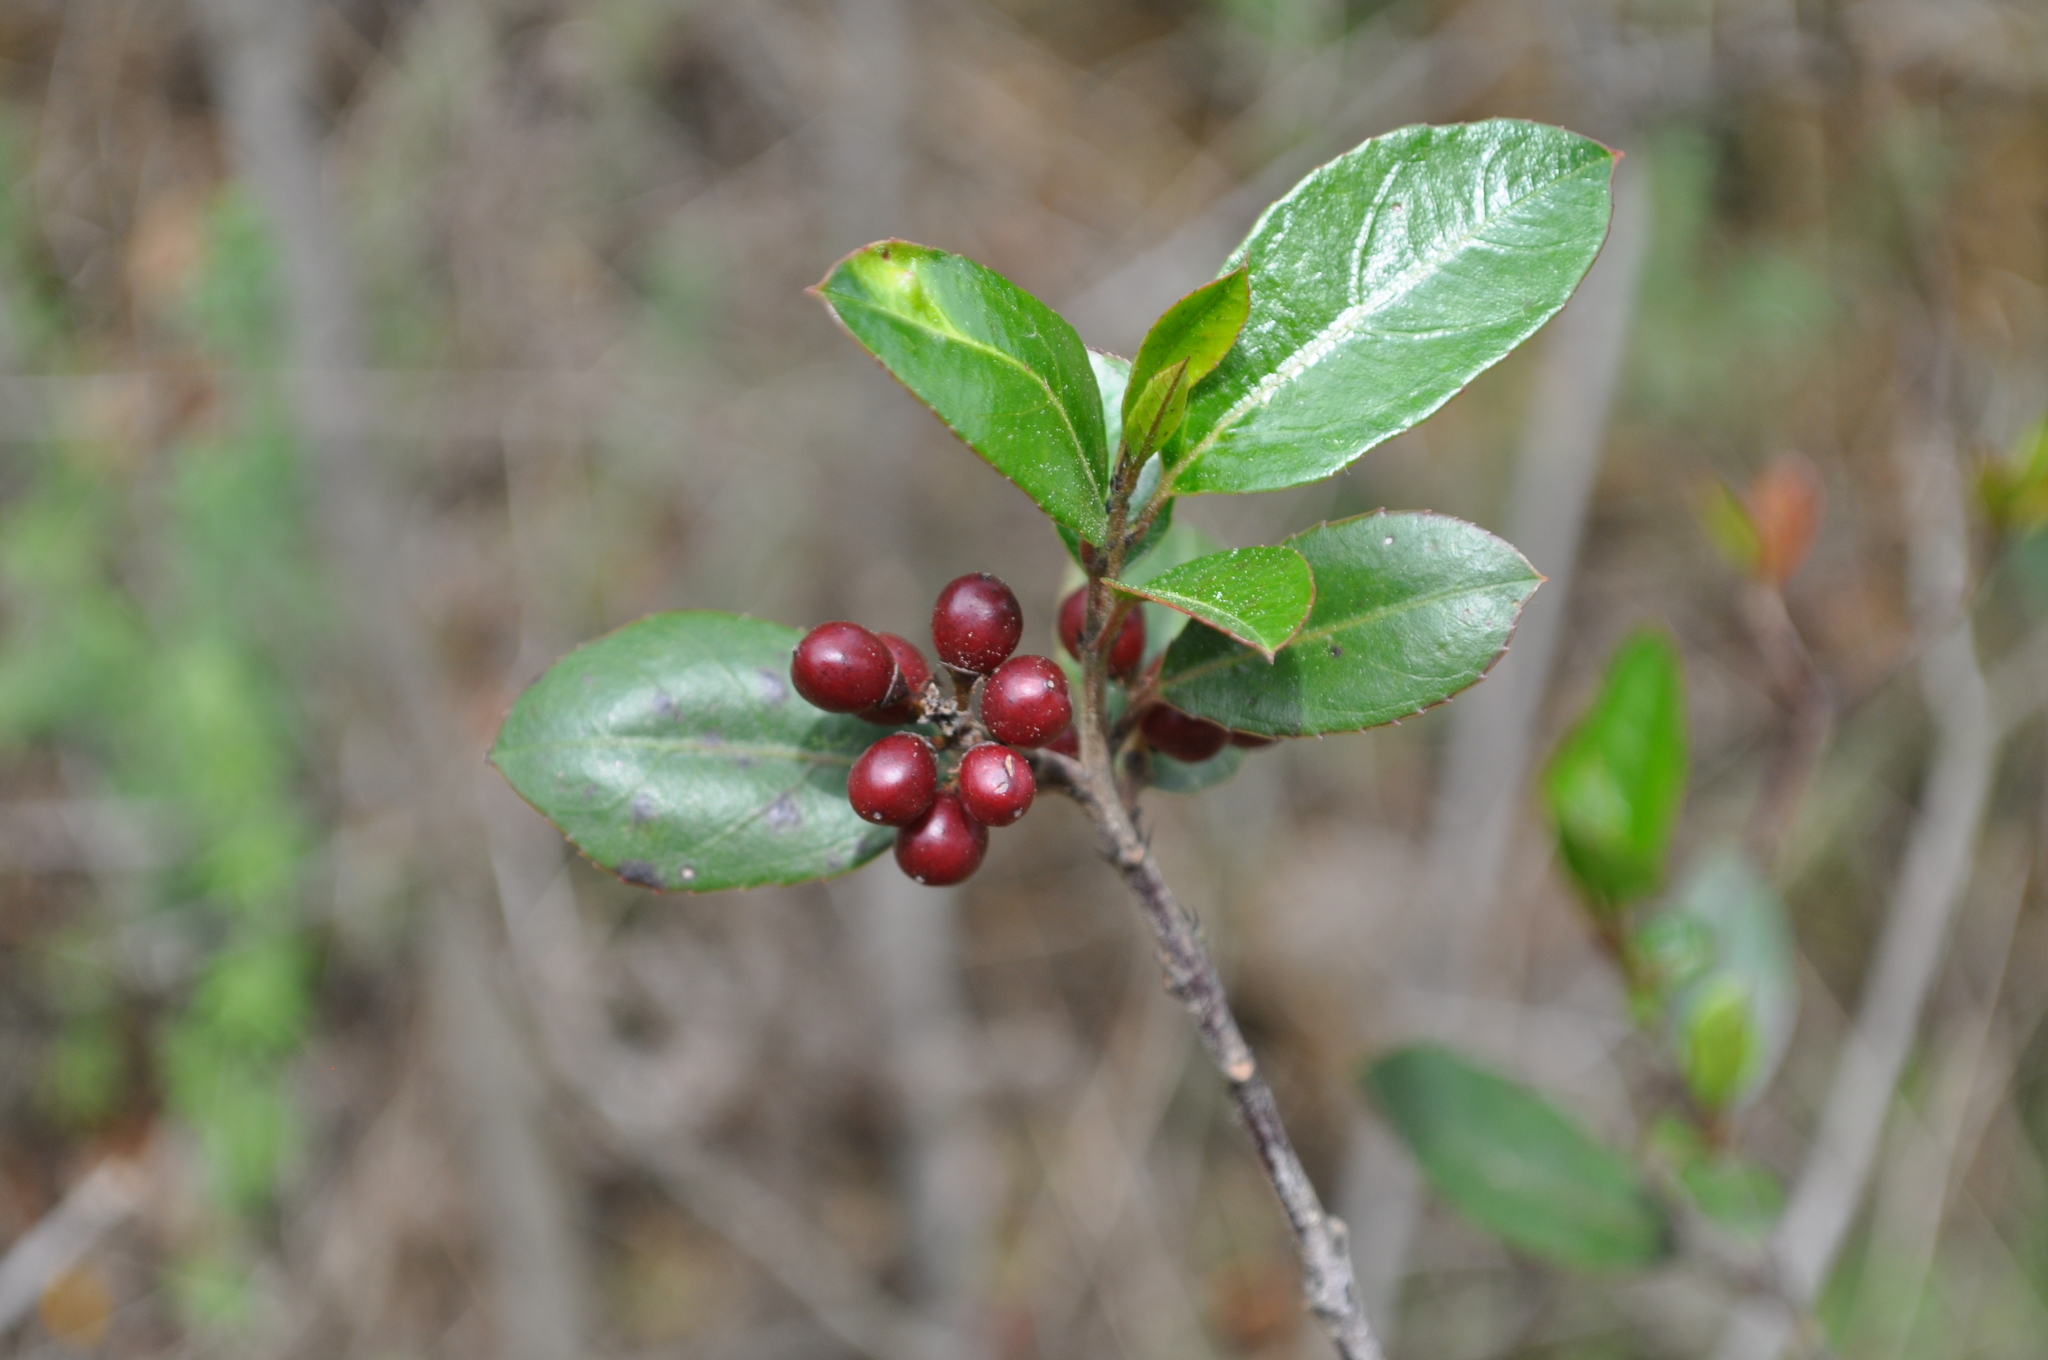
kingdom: Plantae
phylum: Tracheophyta
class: Magnoliopsida
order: Rosales
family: Rhamnaceae
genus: Rhamnus
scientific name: Rhamnus alaternus
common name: Mediterranean buckthorn
